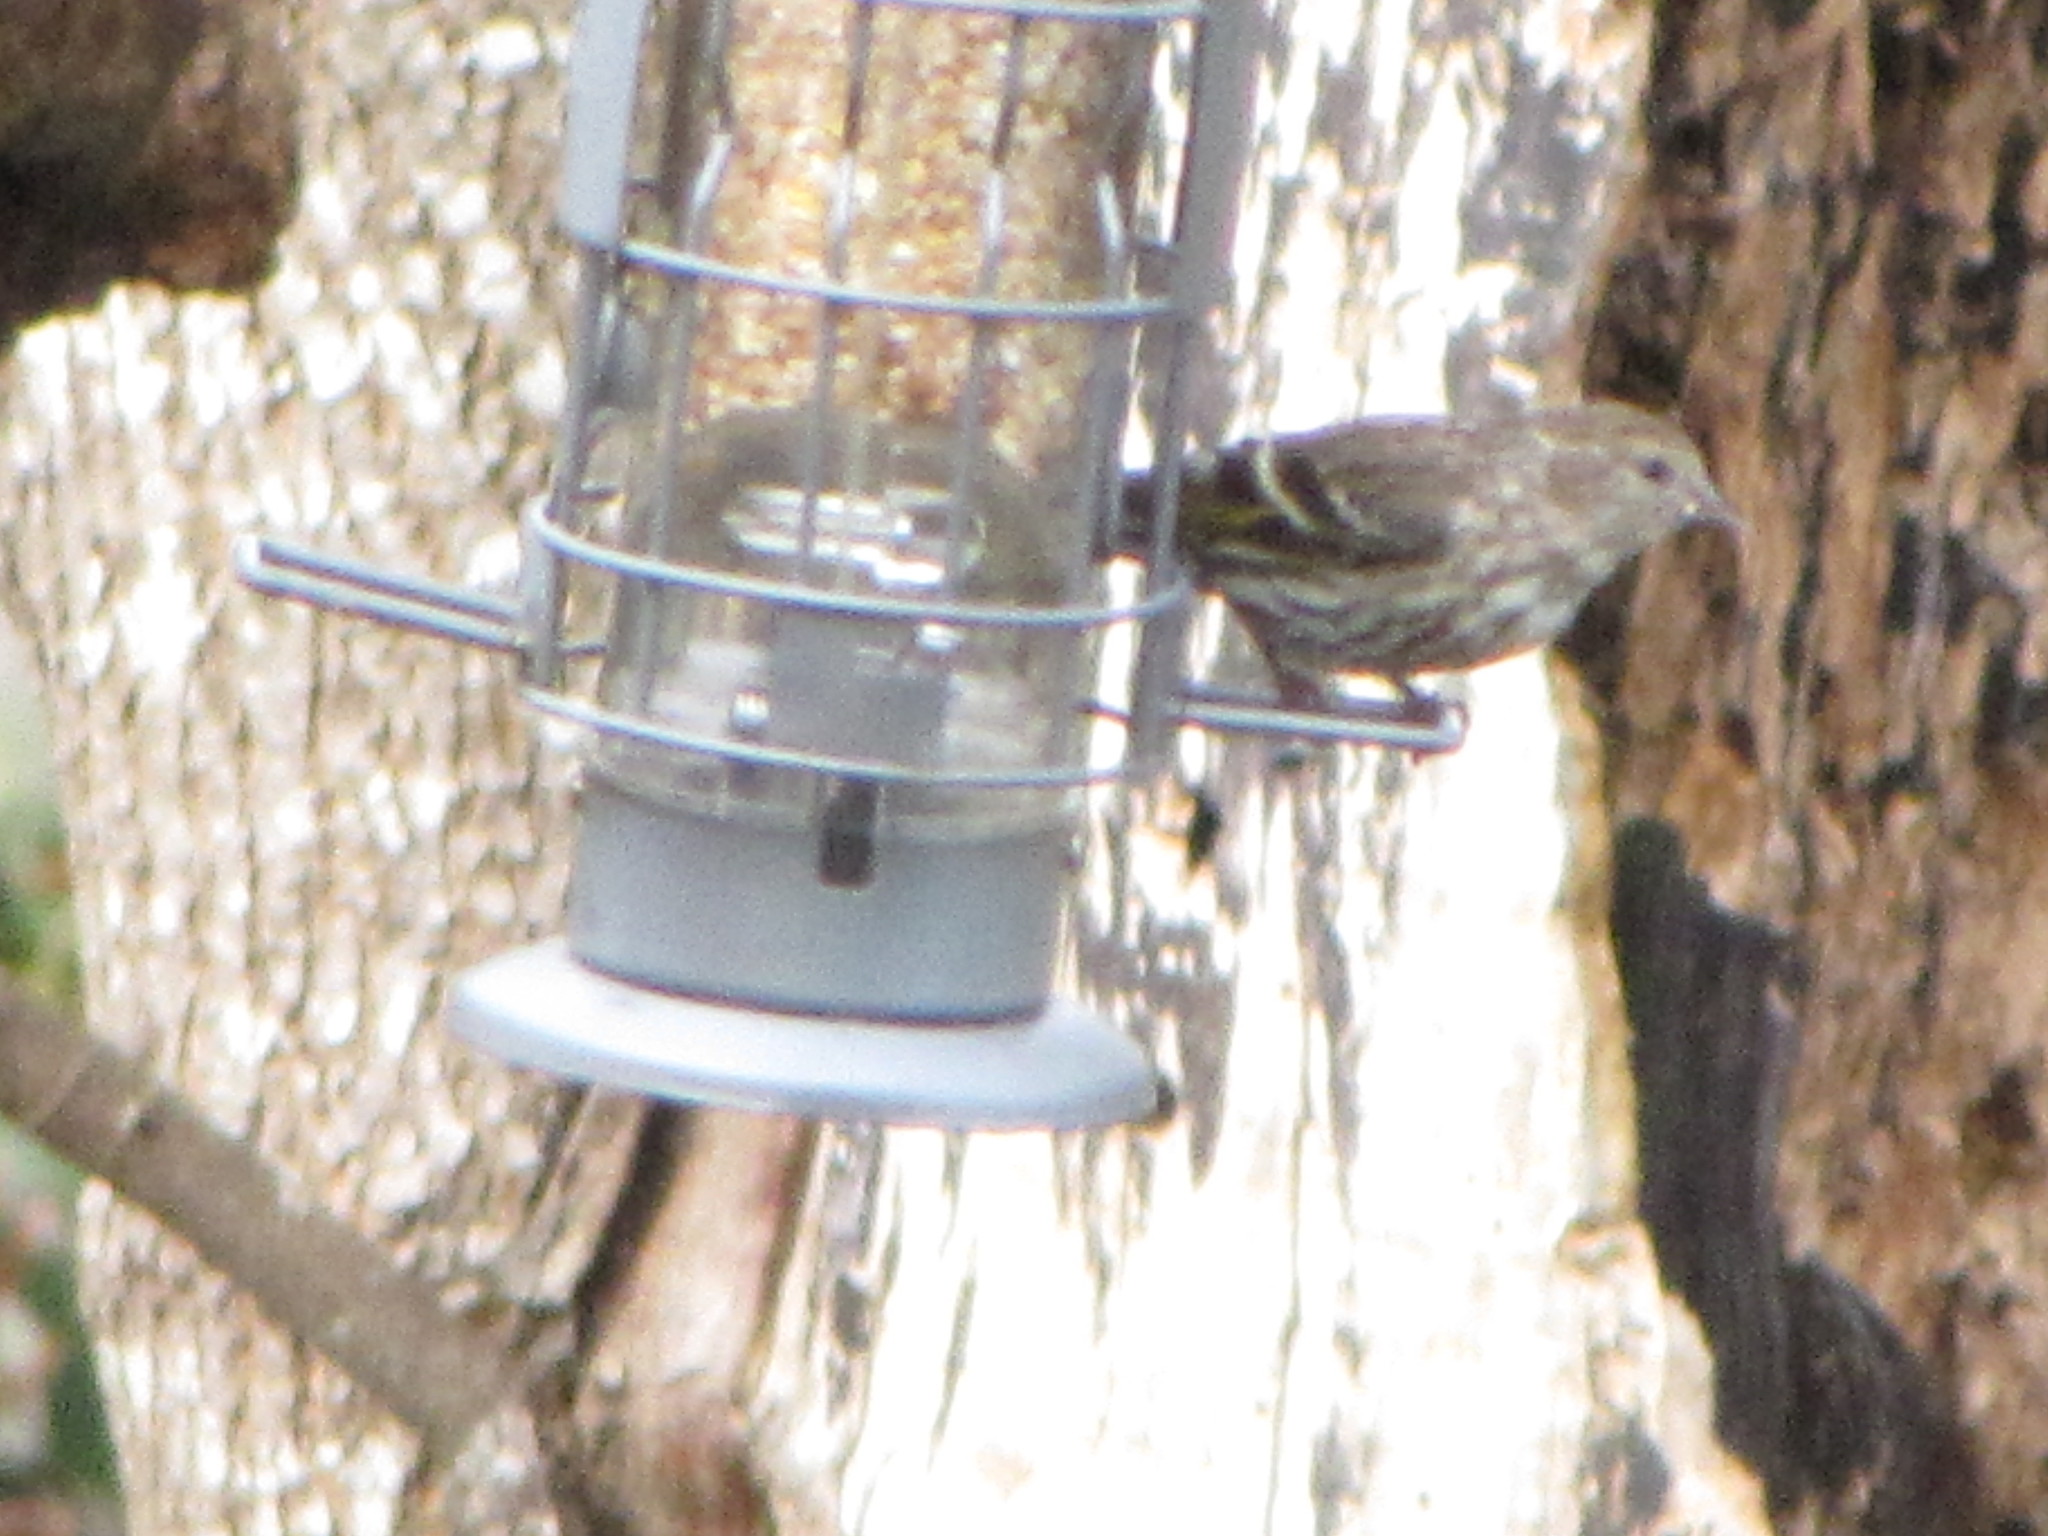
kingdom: Animalia
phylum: Chordata
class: Aves
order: Passeriformes
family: Fringillidae
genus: Spinus
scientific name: Spinus pinus
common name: Pine siskin
